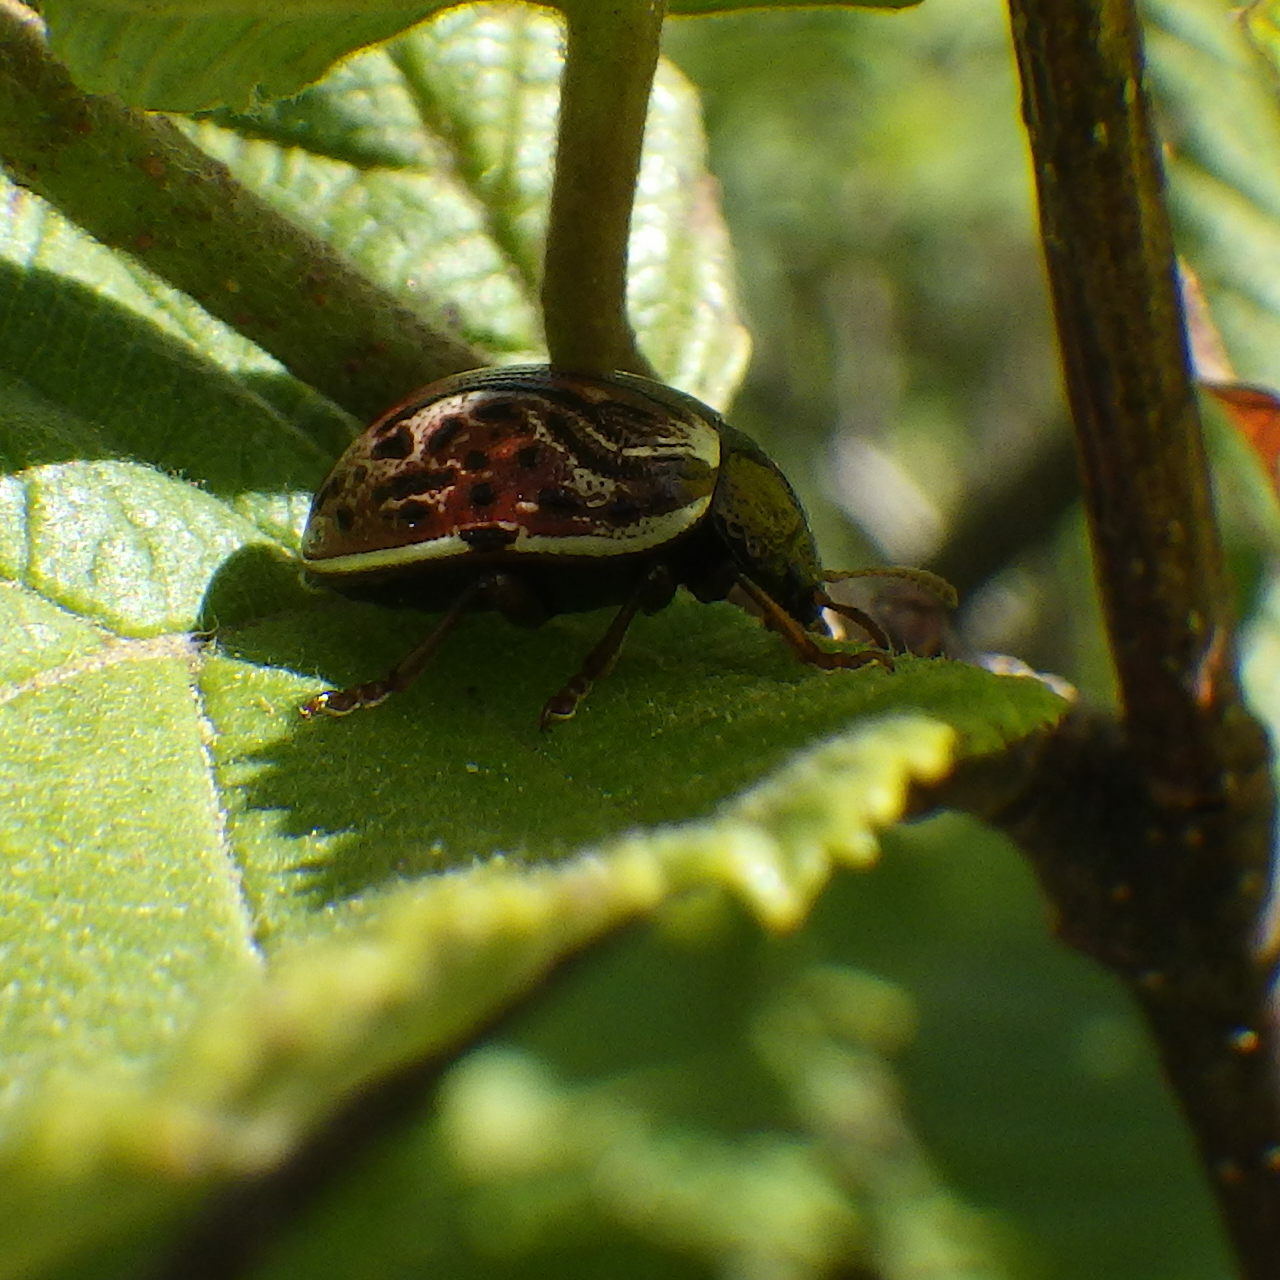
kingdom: Animalia
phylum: Arthropoda
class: Insecta
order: Coleoptera
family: Chrysomelidae
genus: Calligrapha
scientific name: Calligrapha alni
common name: Russet alder leaf beetle
